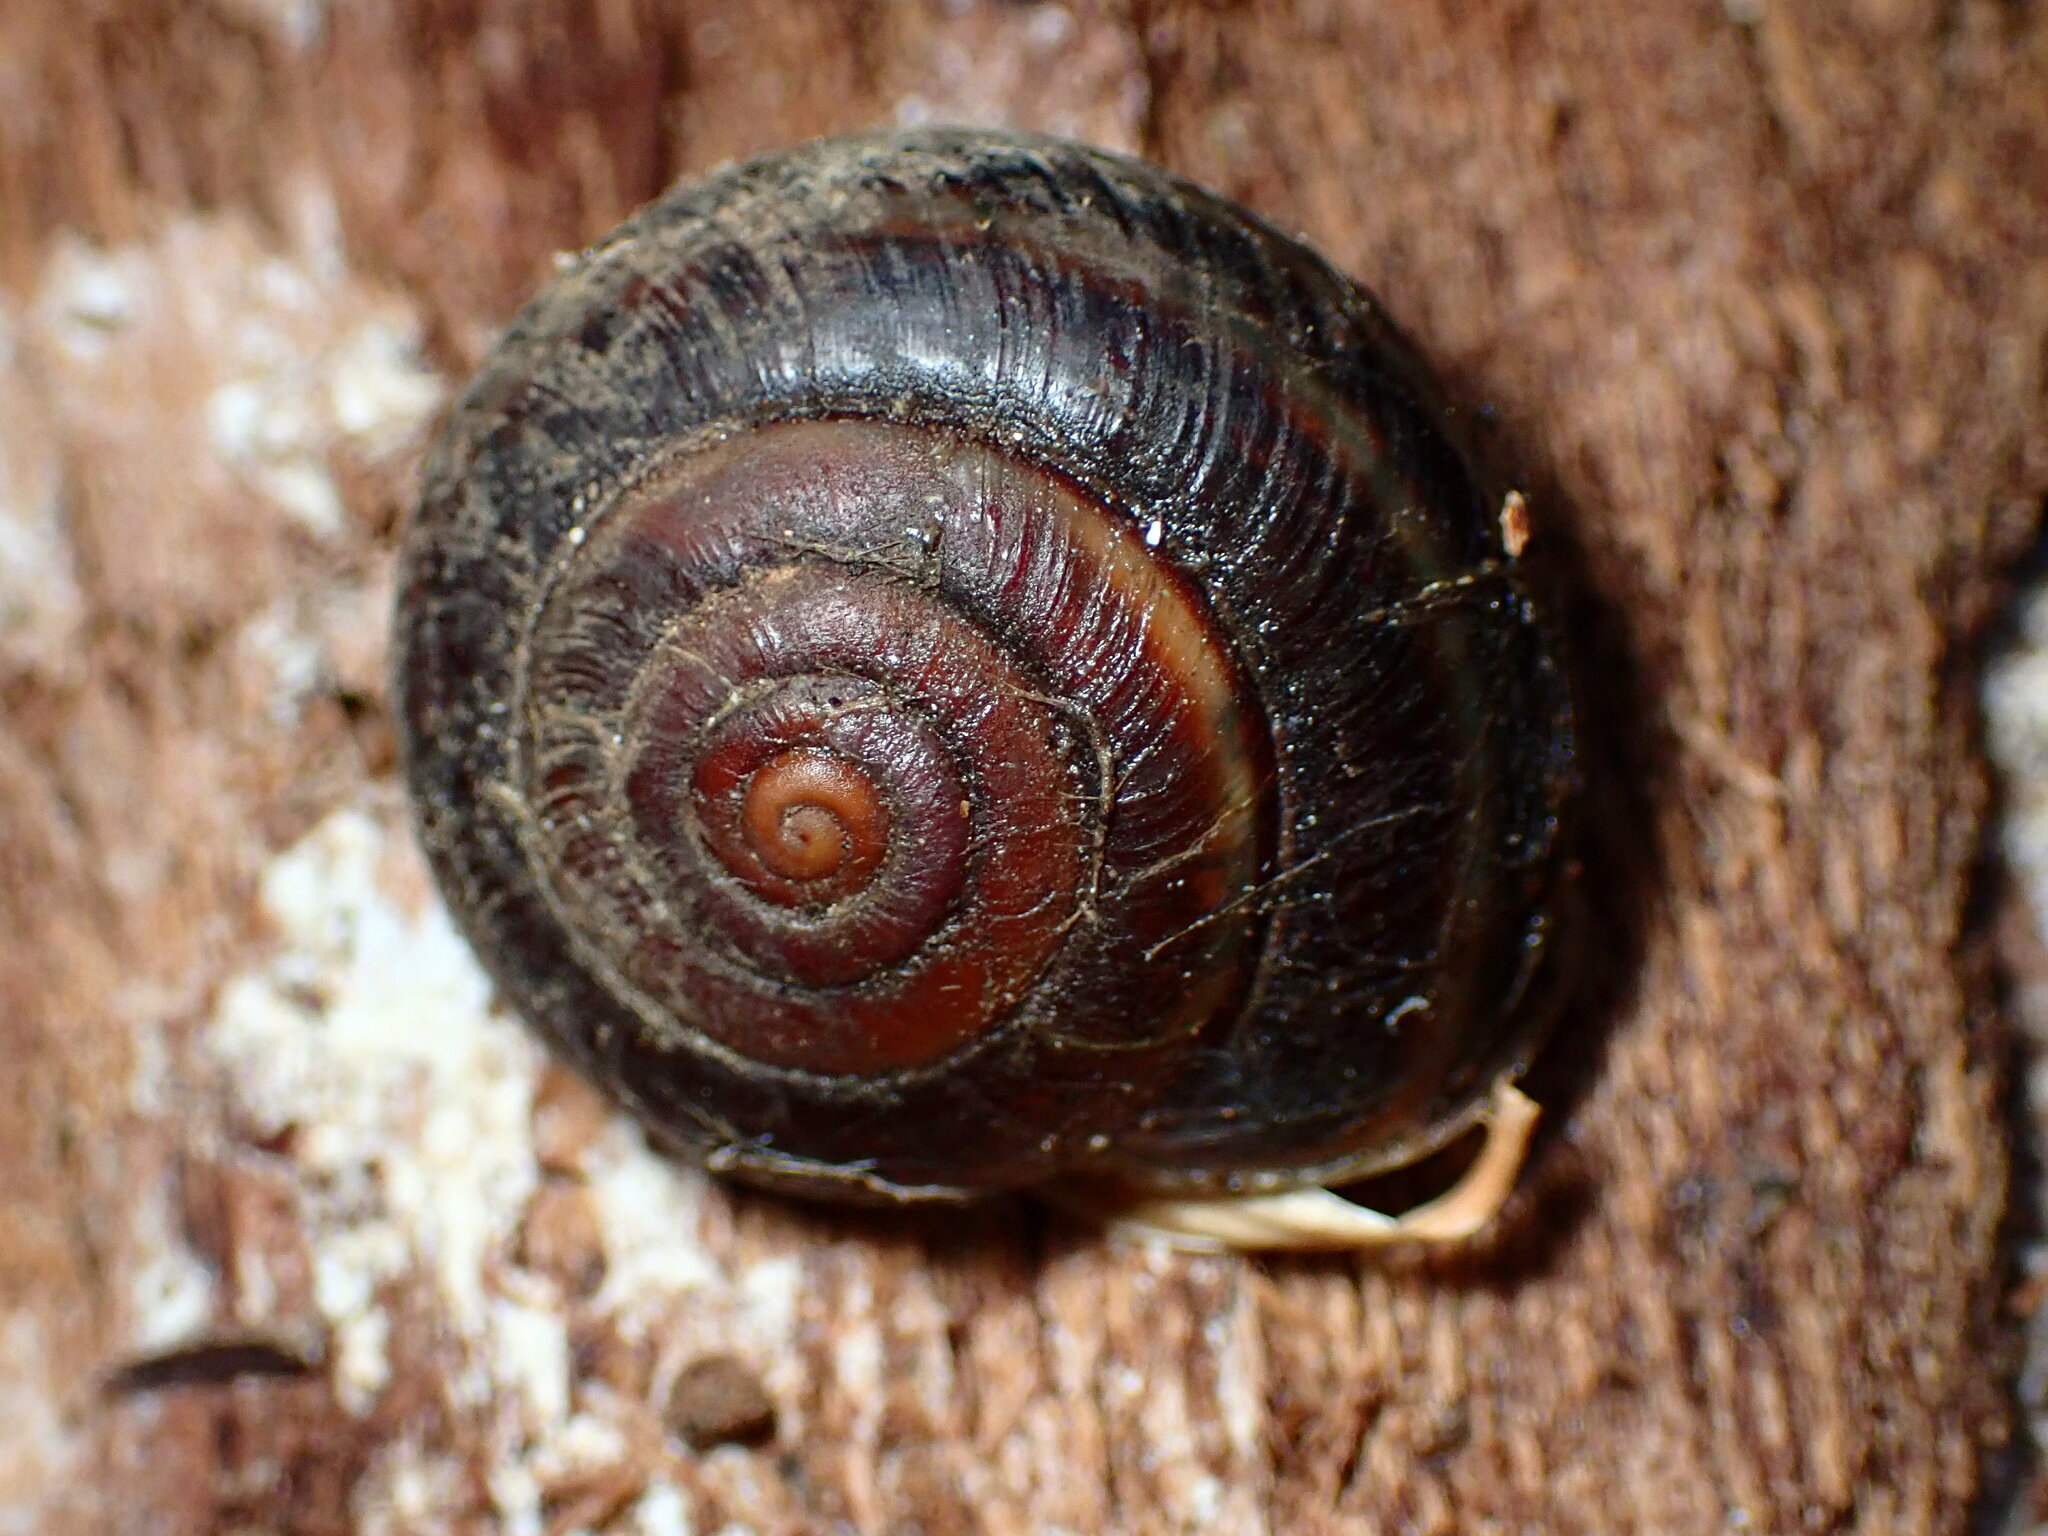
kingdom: Animalia
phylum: Mollusca
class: Gastropoda
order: Stylommatophora
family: Xanthonychidae
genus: Monadenia
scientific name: Monadenia mormonum
